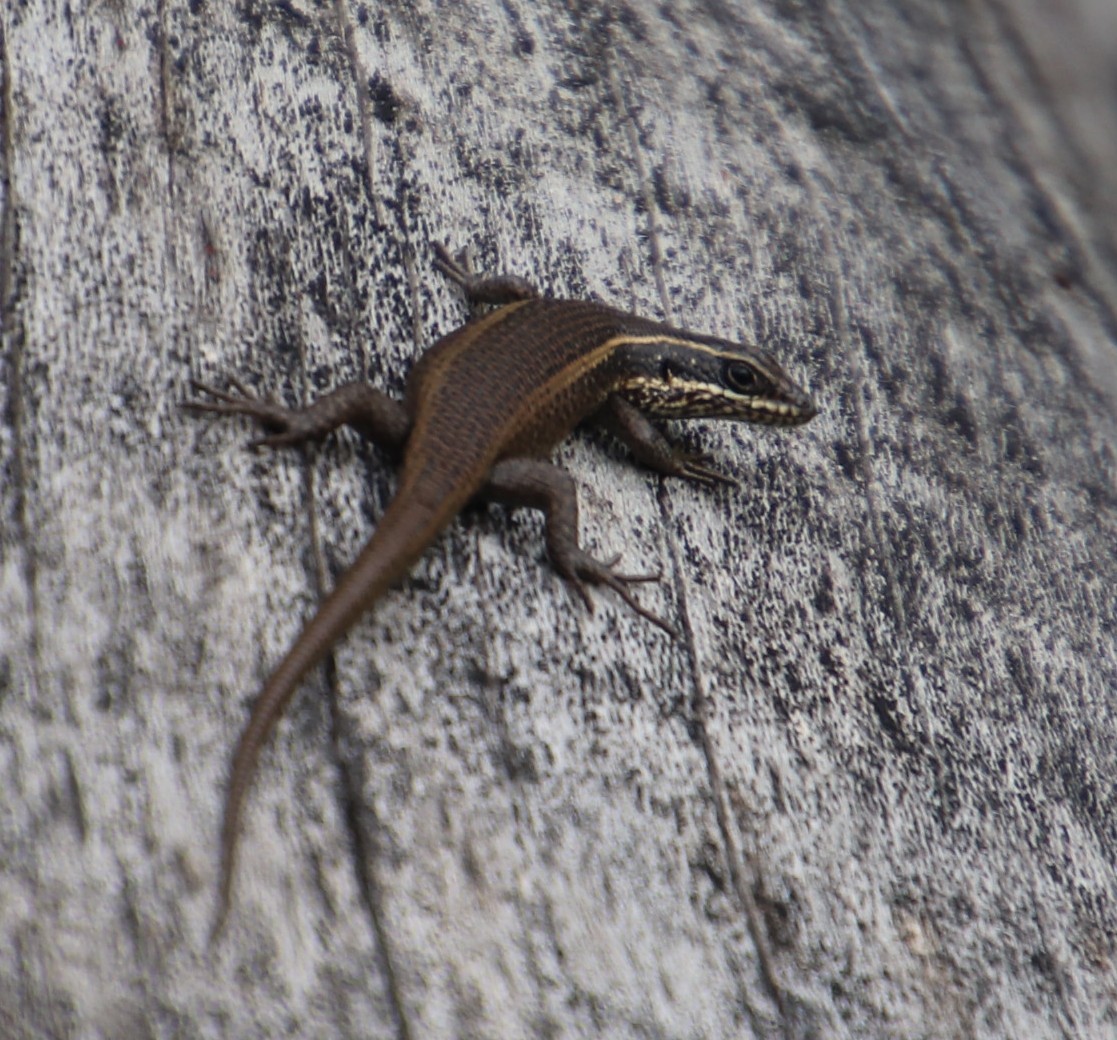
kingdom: Animalia
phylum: Chordata
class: Squamata
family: Scincidae
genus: Trachylepis
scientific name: Trachylepis punctatissima
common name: Montane speckled skink
